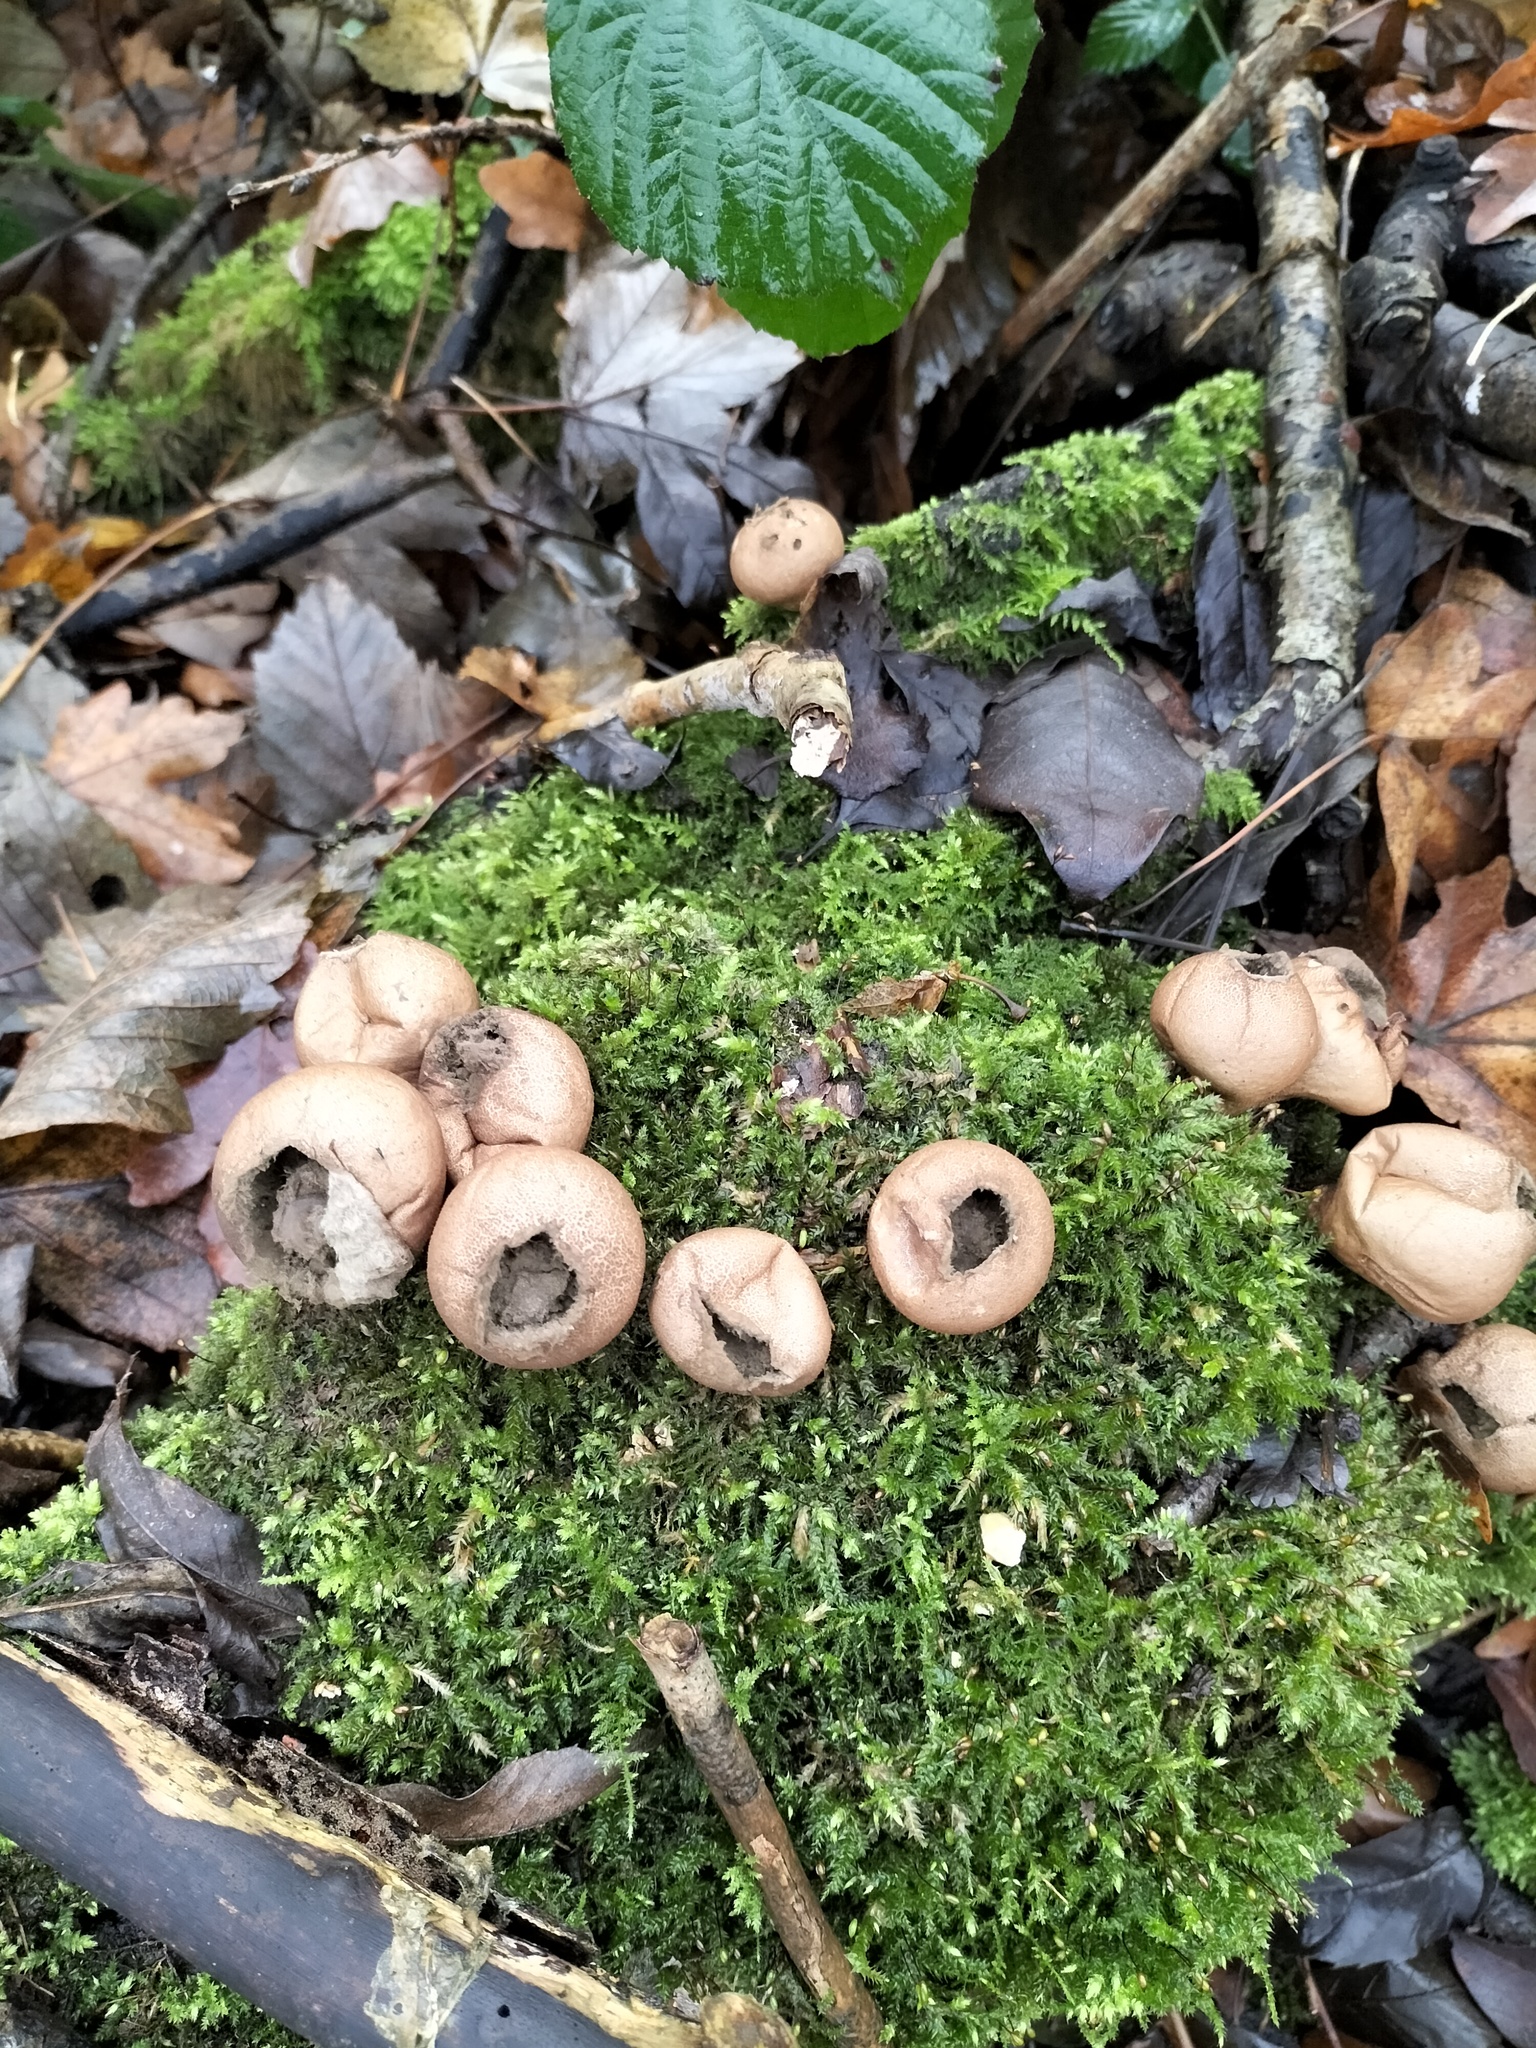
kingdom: Fungi
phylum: Basidiomycota
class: Agaricomycetes
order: Agaricales
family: Lycoperdaceae
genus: Apioperdon
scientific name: Apioperdon pyriforme
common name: Pear-shaped puffball
